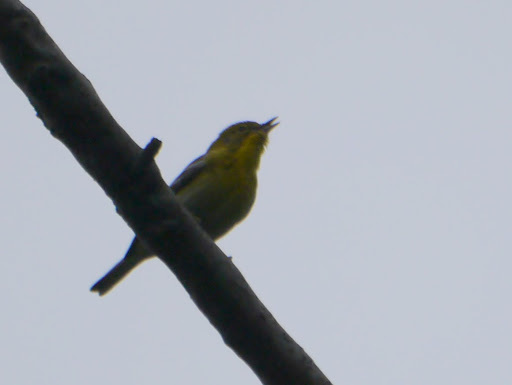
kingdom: Animalia
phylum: Chordata
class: Aves
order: Passeriformes
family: Parulidae
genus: Setophaga
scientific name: Setophaga pinus
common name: Pine warbler
